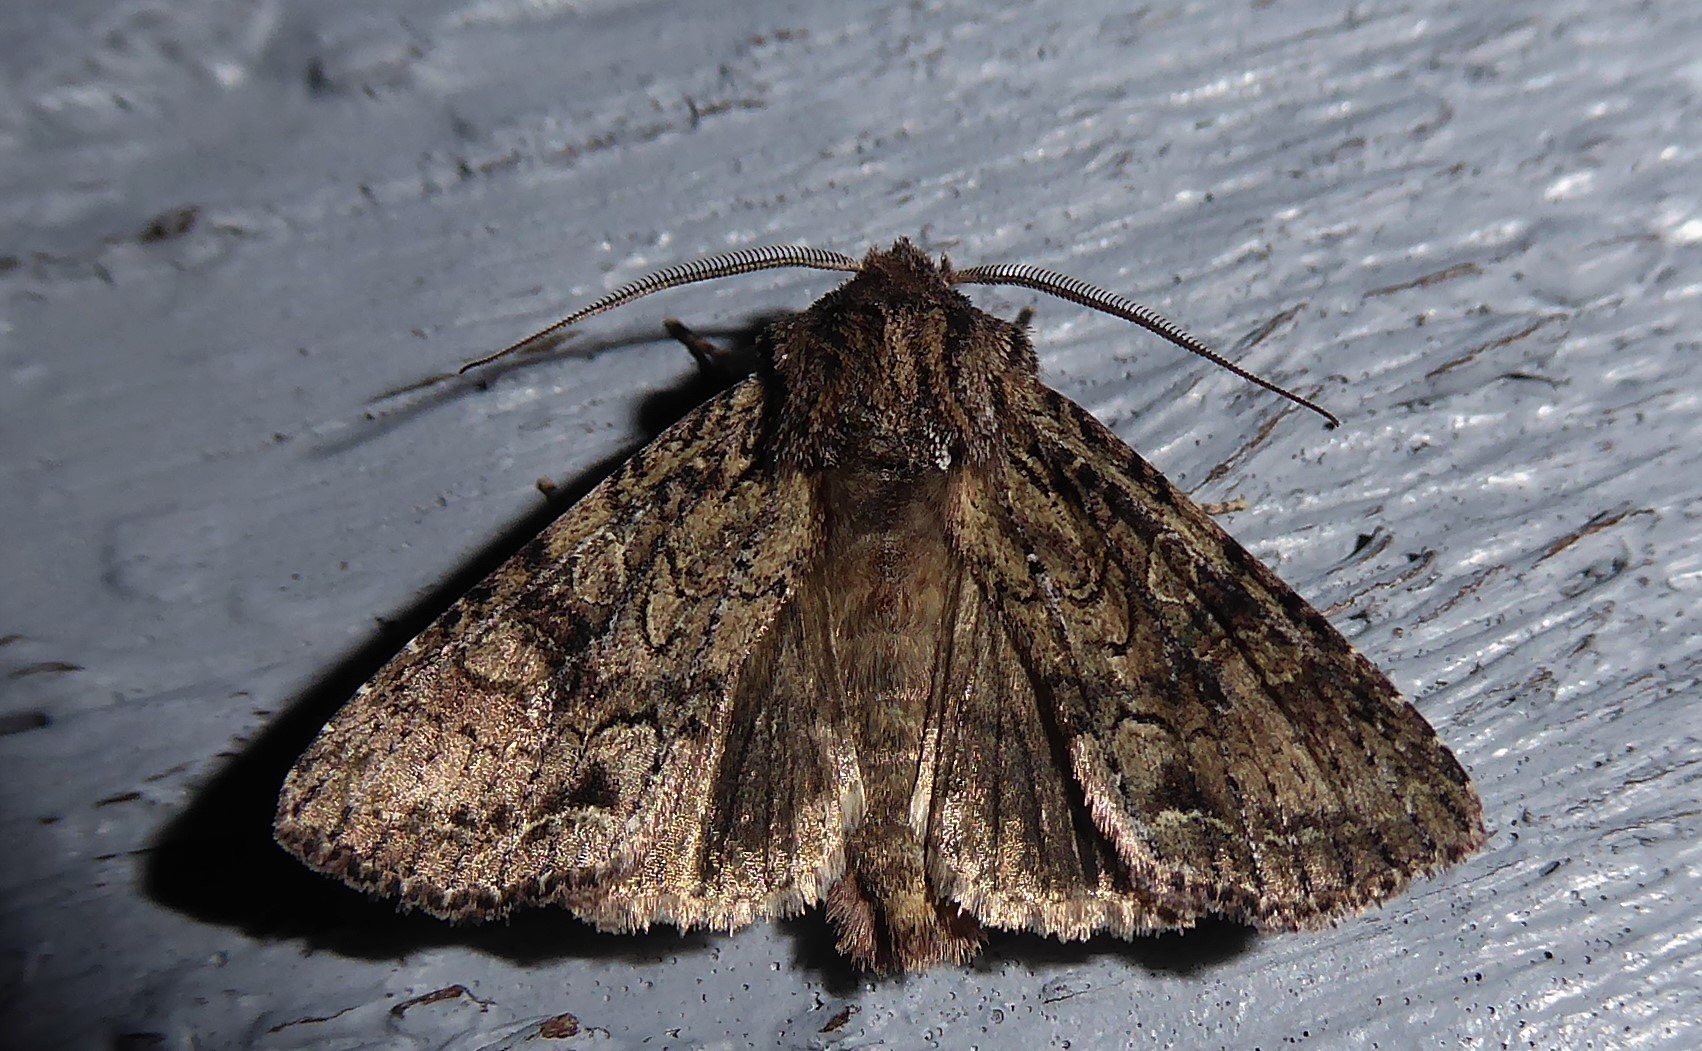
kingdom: Animalia
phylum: Arthropoda
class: Insecta
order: Lepidoptera
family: Noctuidae
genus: Ichneutica
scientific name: Ichneutica mutans
